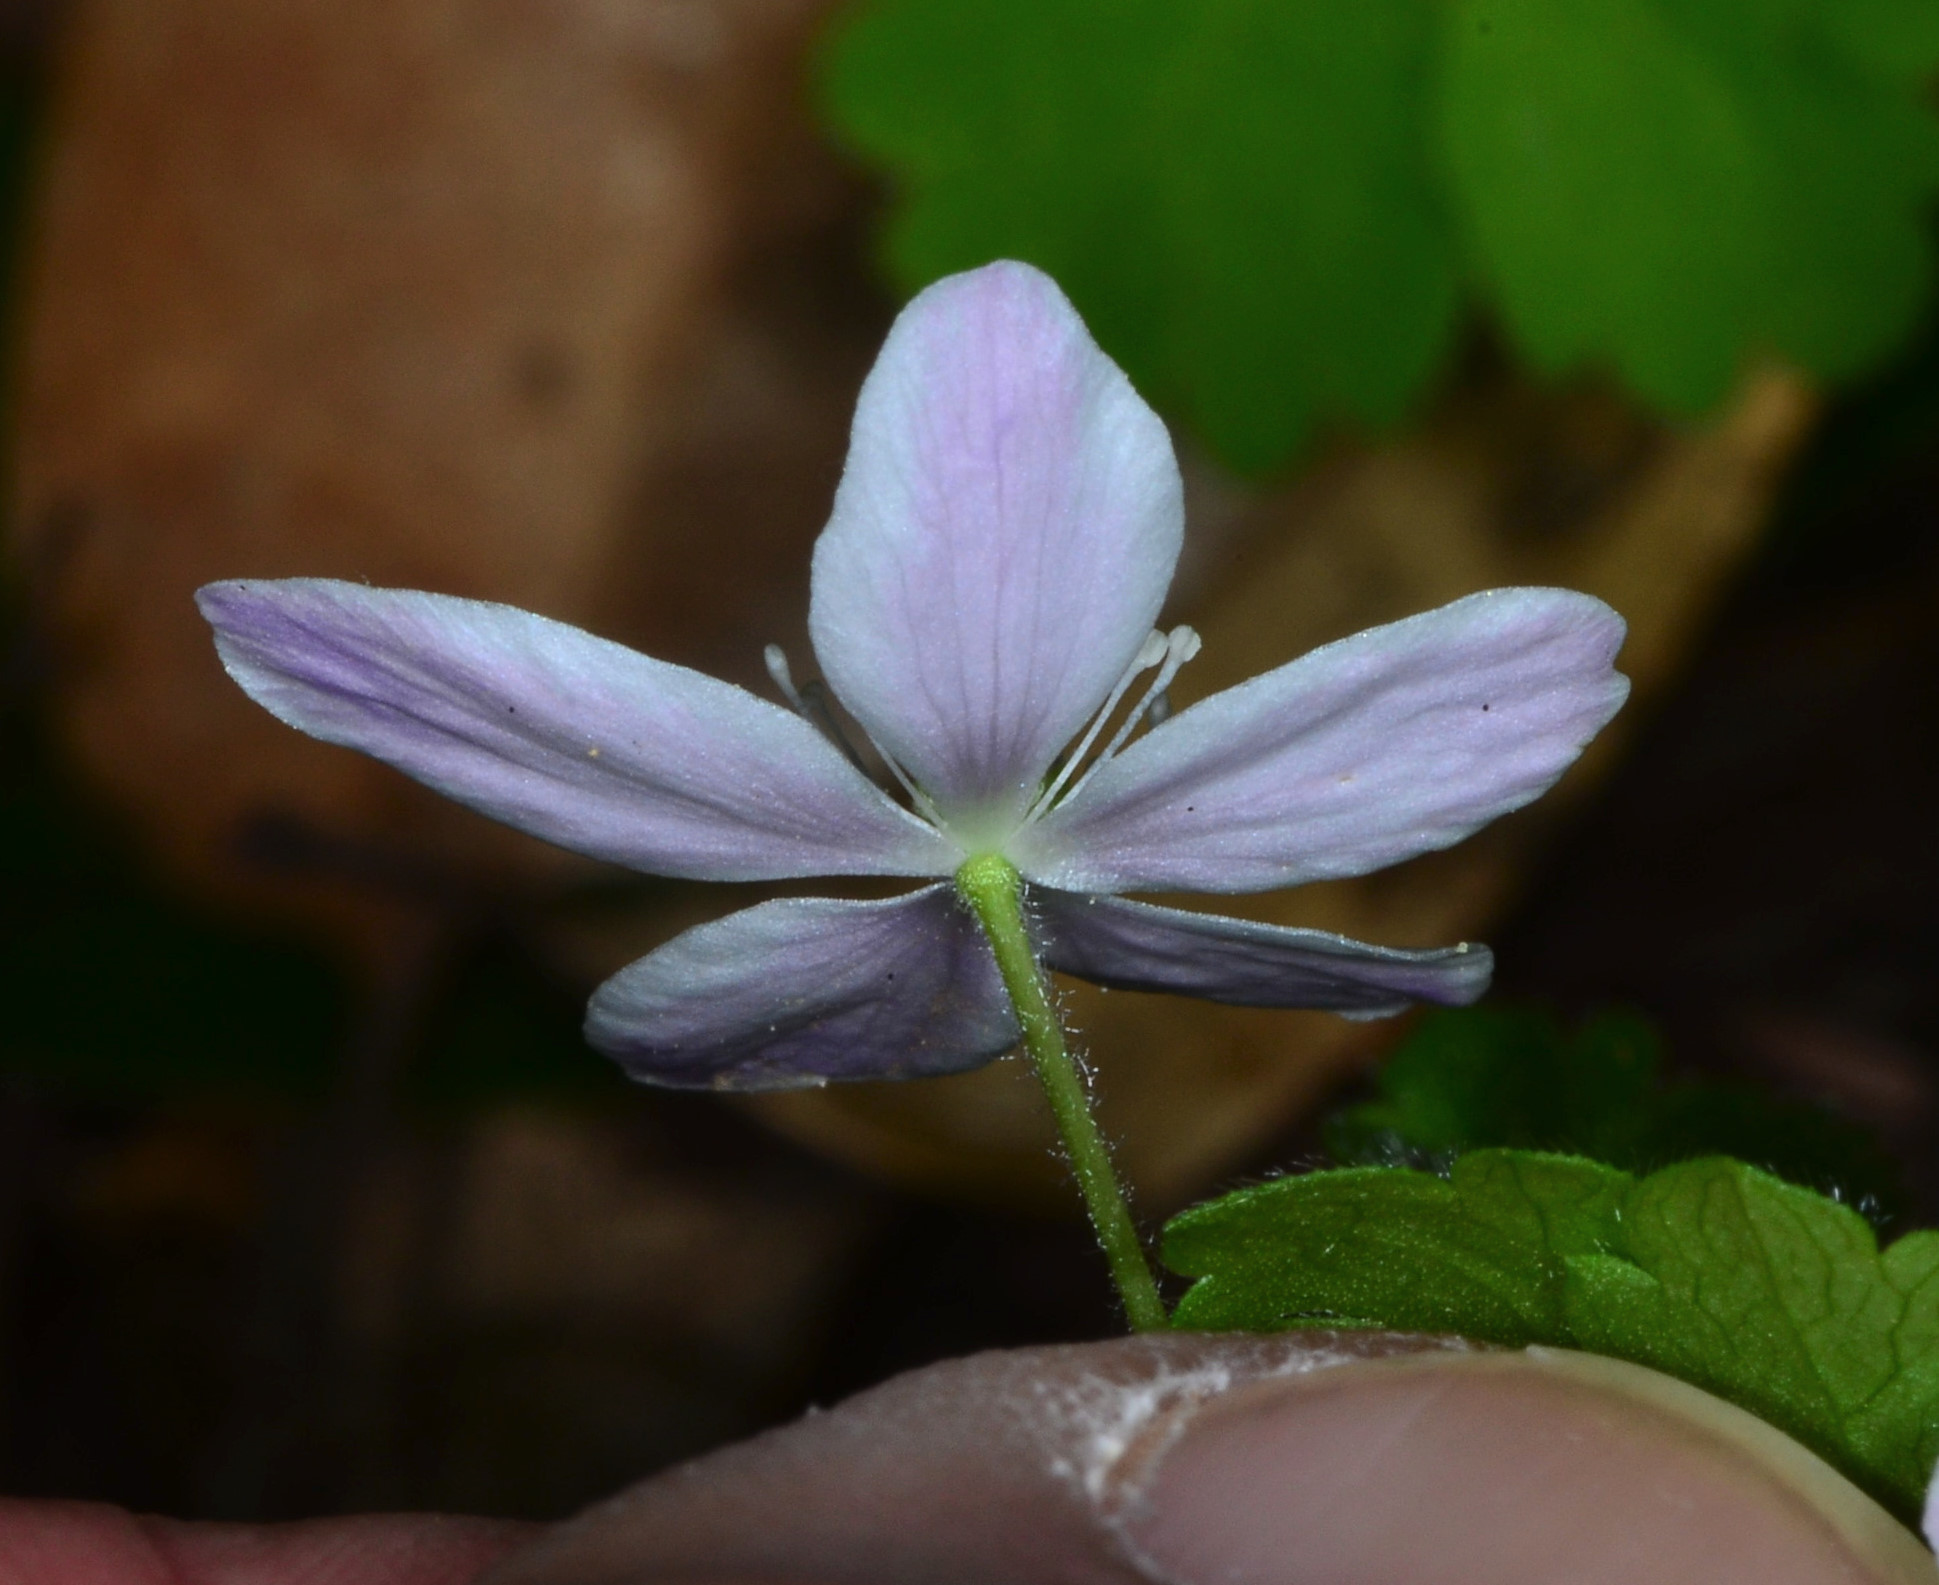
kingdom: Plantae
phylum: Tracheophyta
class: Magnoliopsida
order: Ranunculales
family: Ranunculaceae
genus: Anemone
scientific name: Anemone
